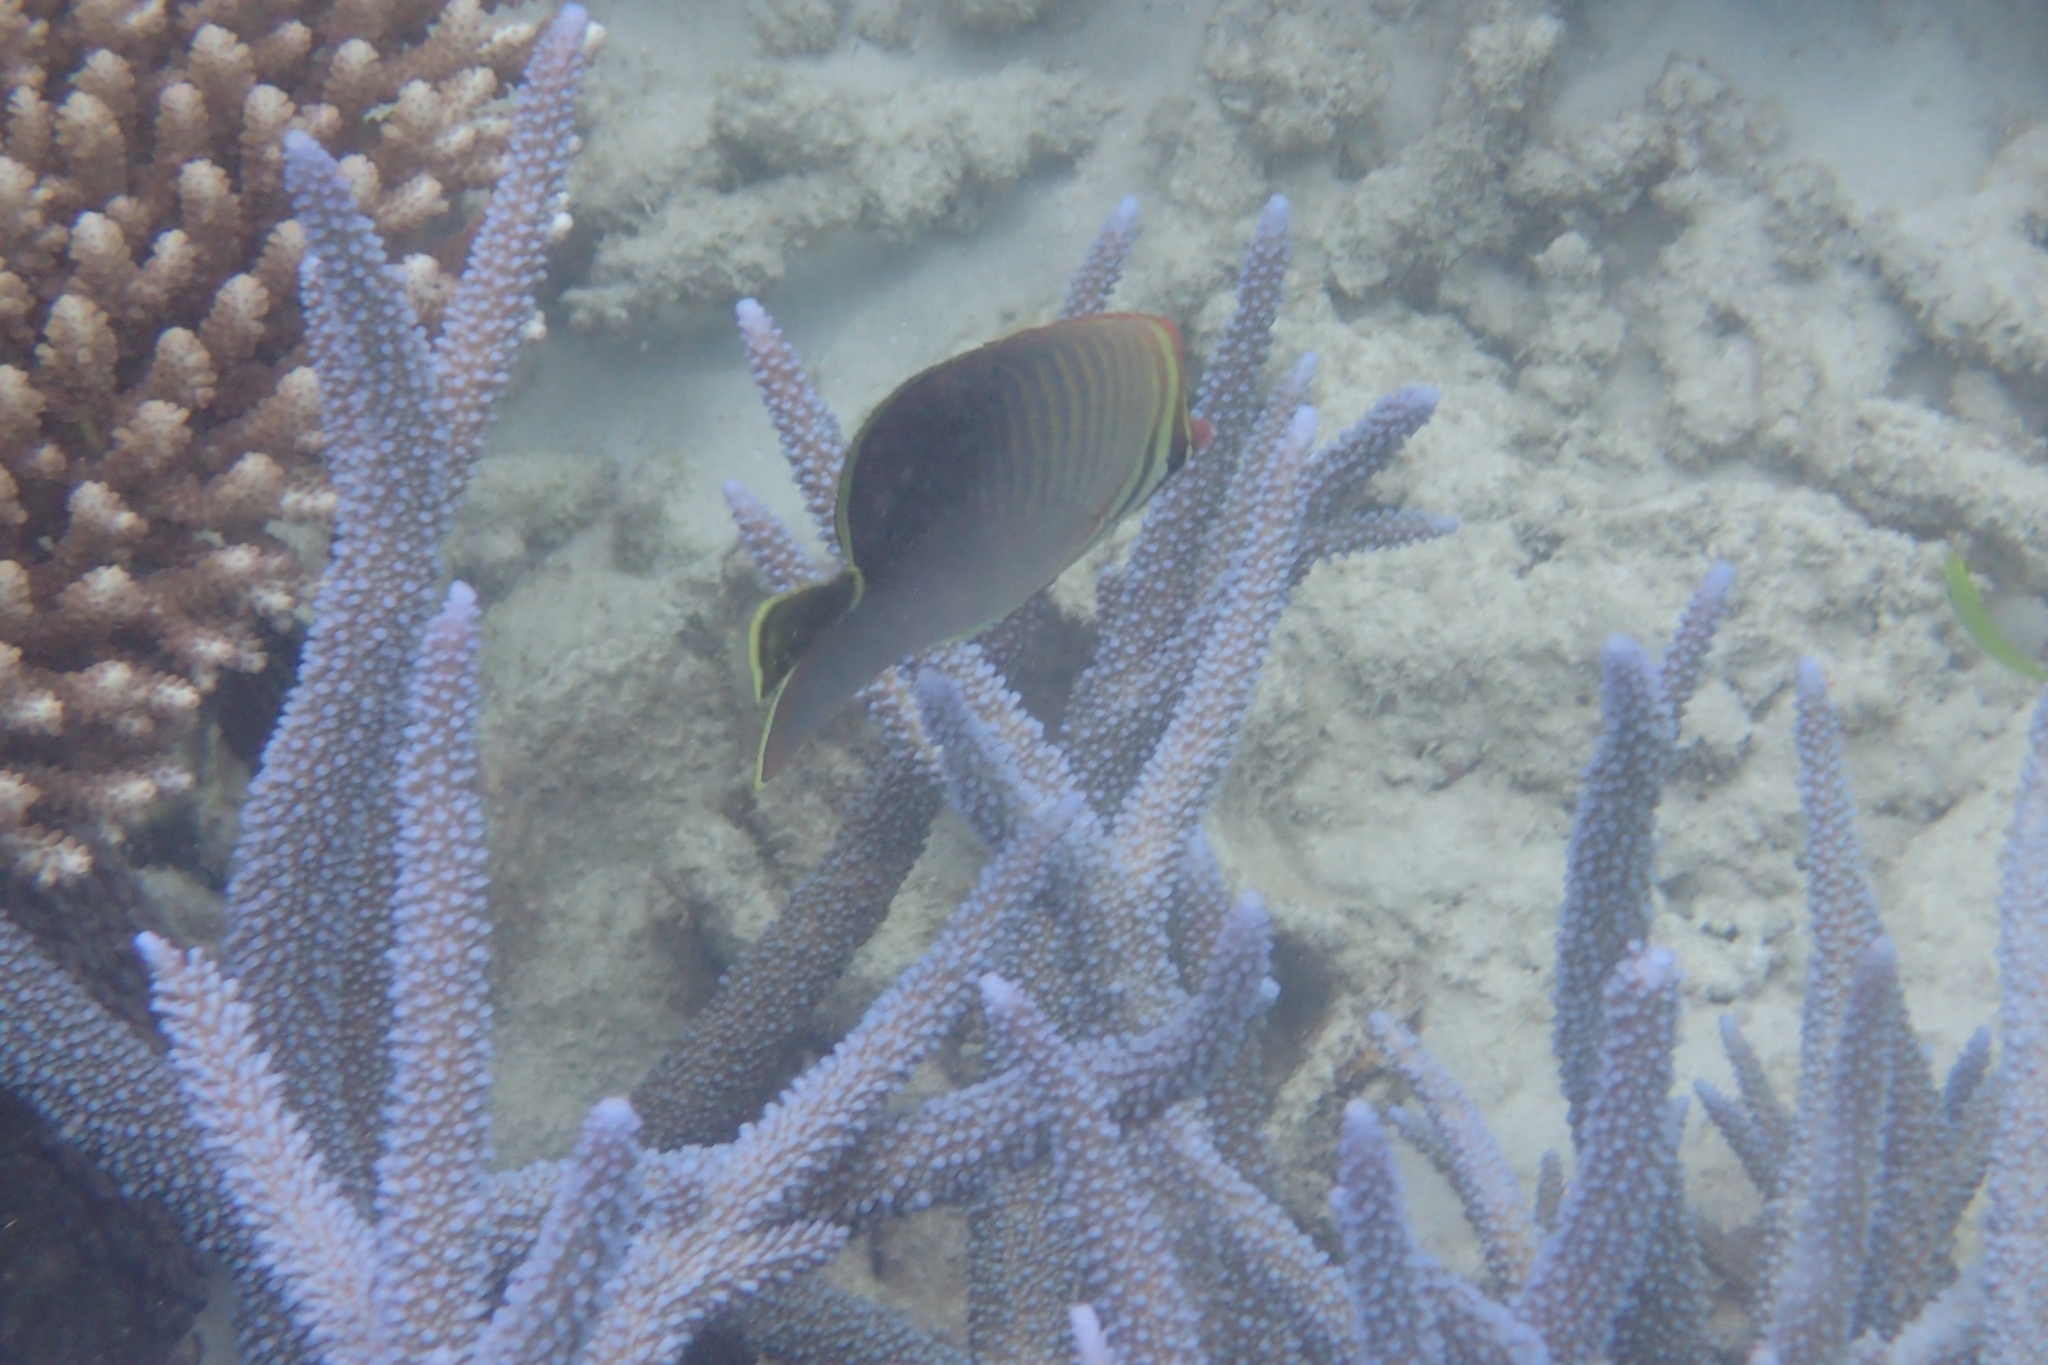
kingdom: Animalia
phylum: Chordata
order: Perciformes
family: Chaetodontidae
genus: Chaetodon
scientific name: Chaetodon baronessa
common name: Triangular butterflyfish
